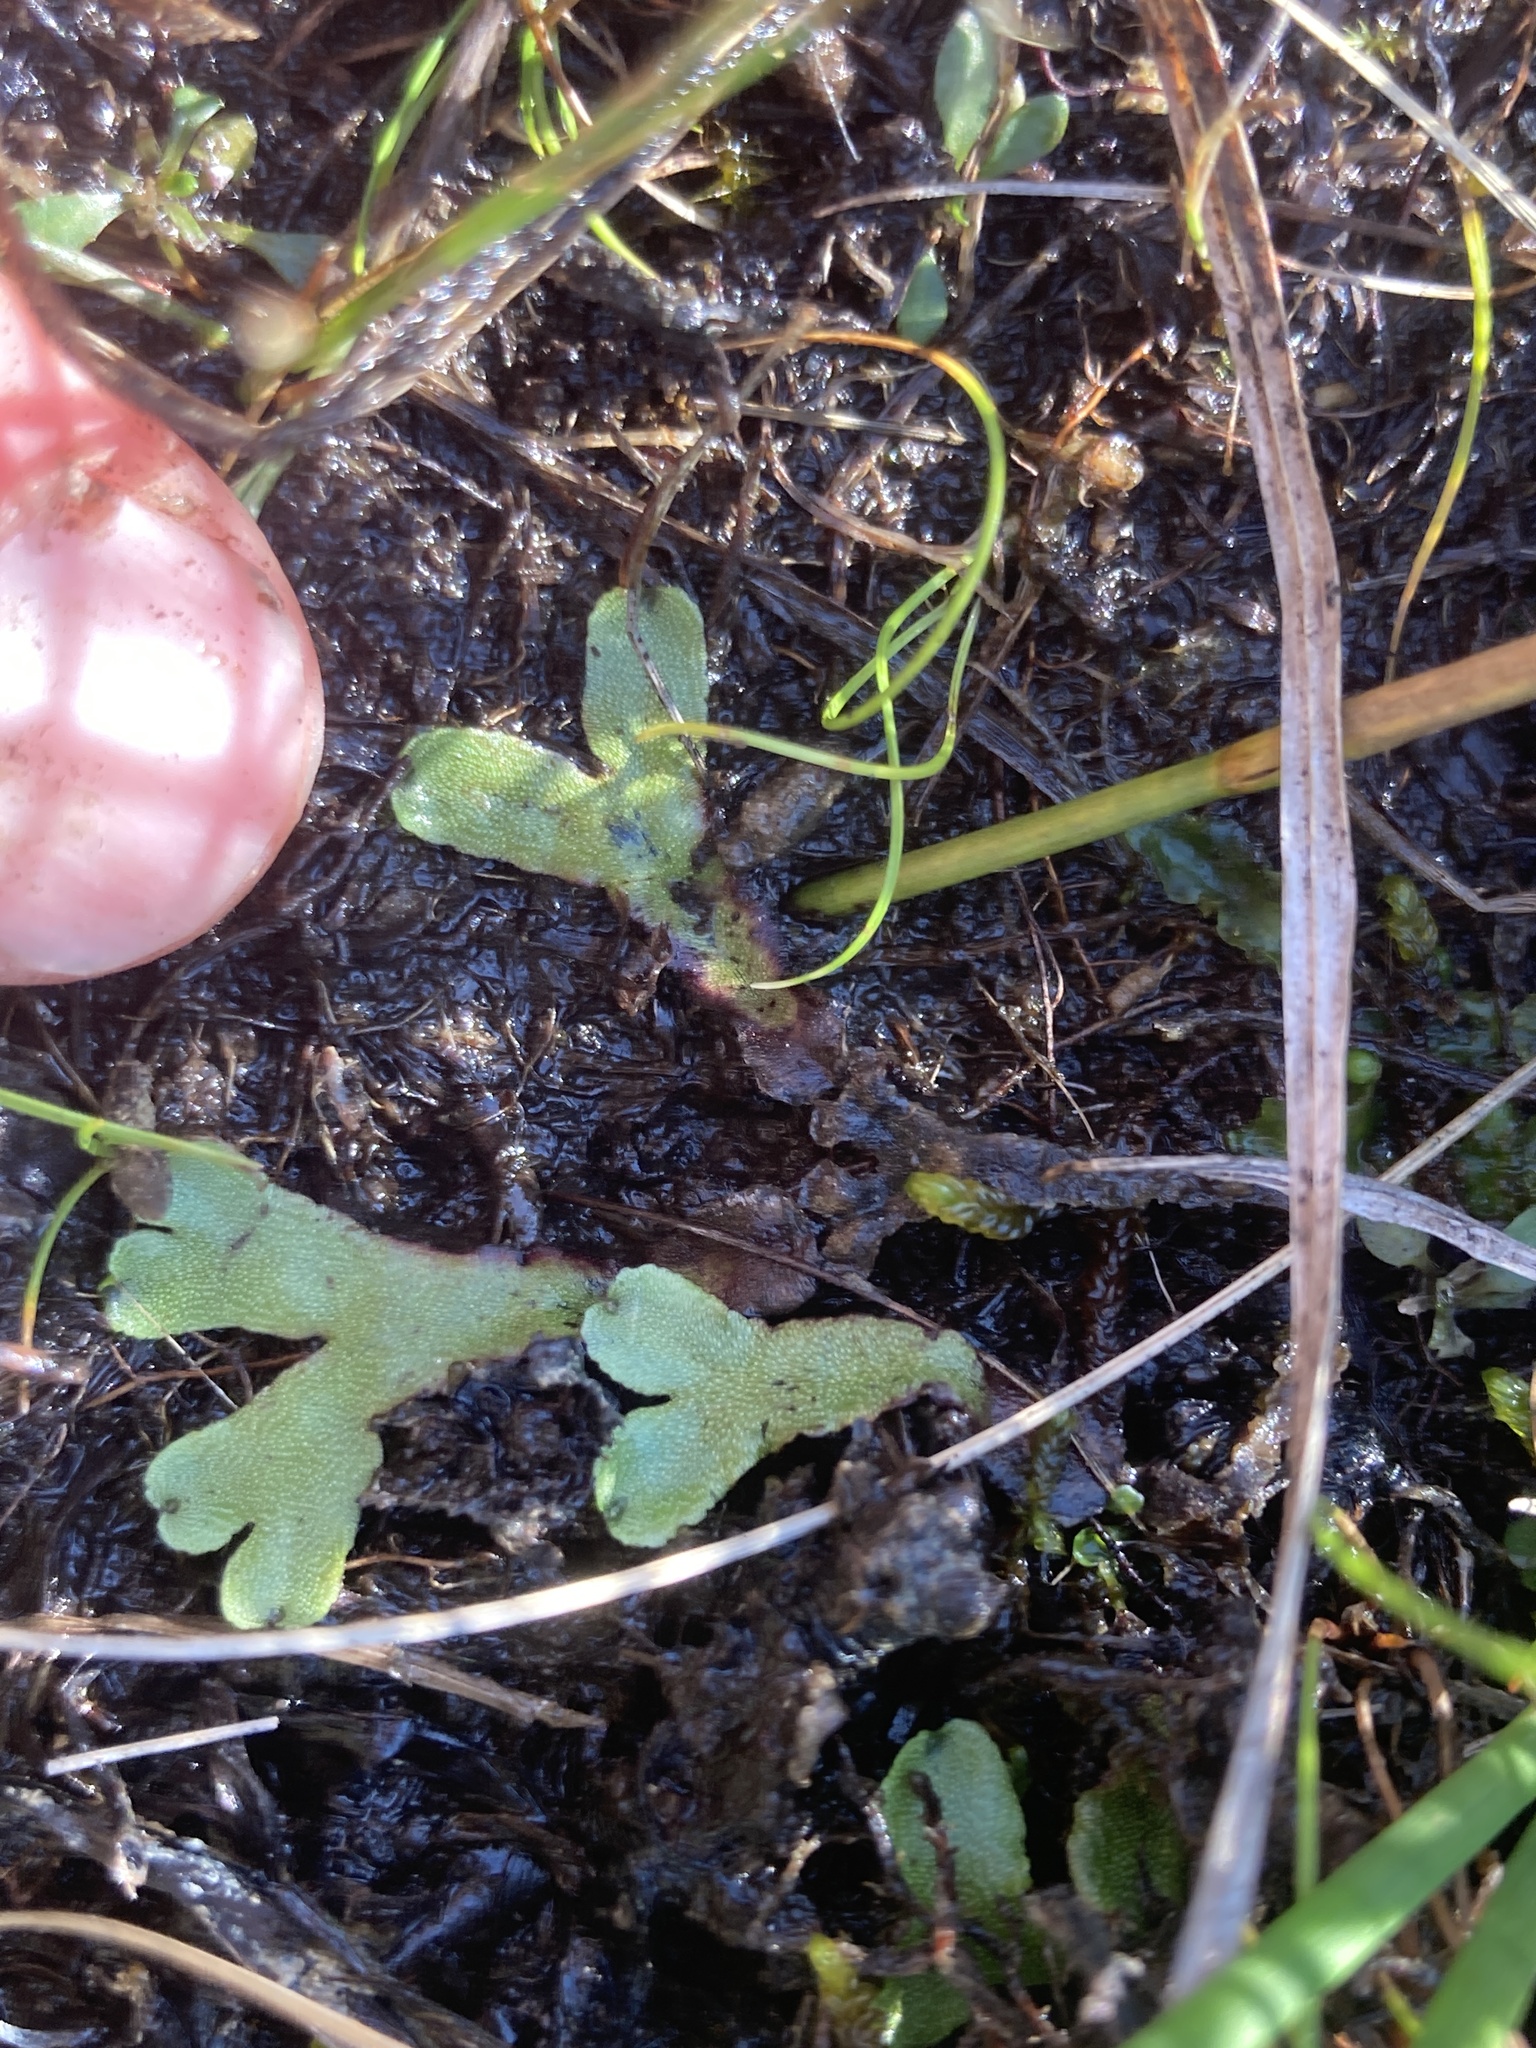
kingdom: Plantae
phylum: Marchantiophyta
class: Marchantiopsida
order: Marchantiales
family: Marchantiaceae
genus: Marchantia
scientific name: Marchantia quadrata
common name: Narrow mushroom-headed liverwort
